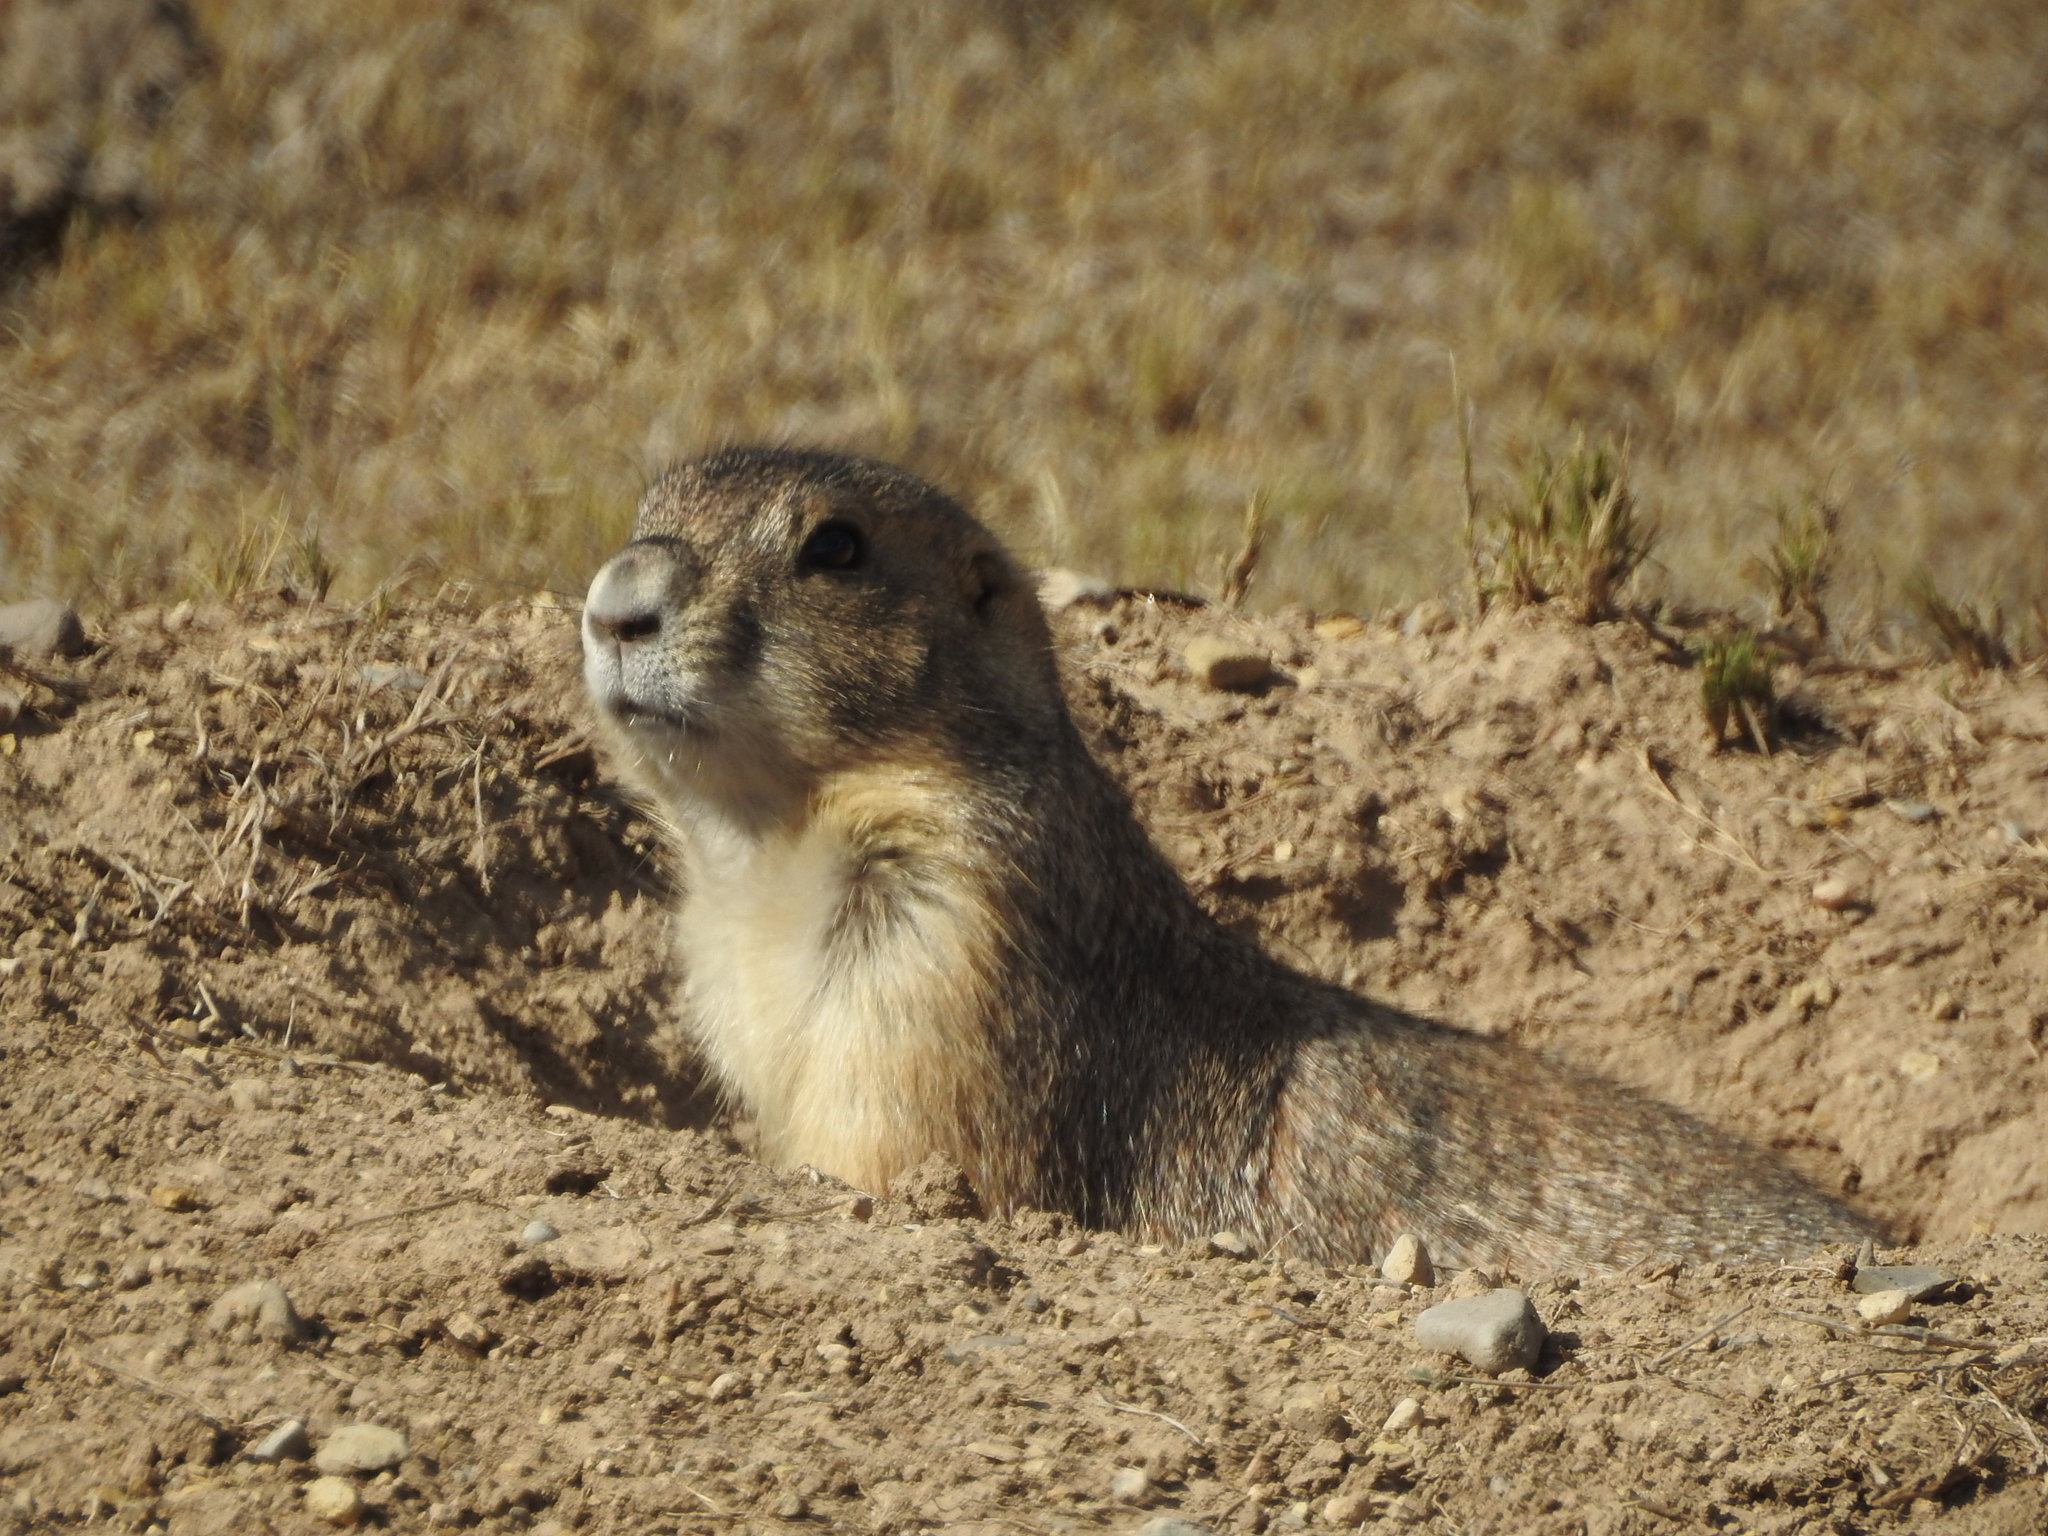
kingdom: Animalia
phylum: Chordata
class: Mammalia
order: Rodentia
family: Sciuridae
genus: Cynomys
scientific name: Cynomys mexicanus
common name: Mexican prairie dog
